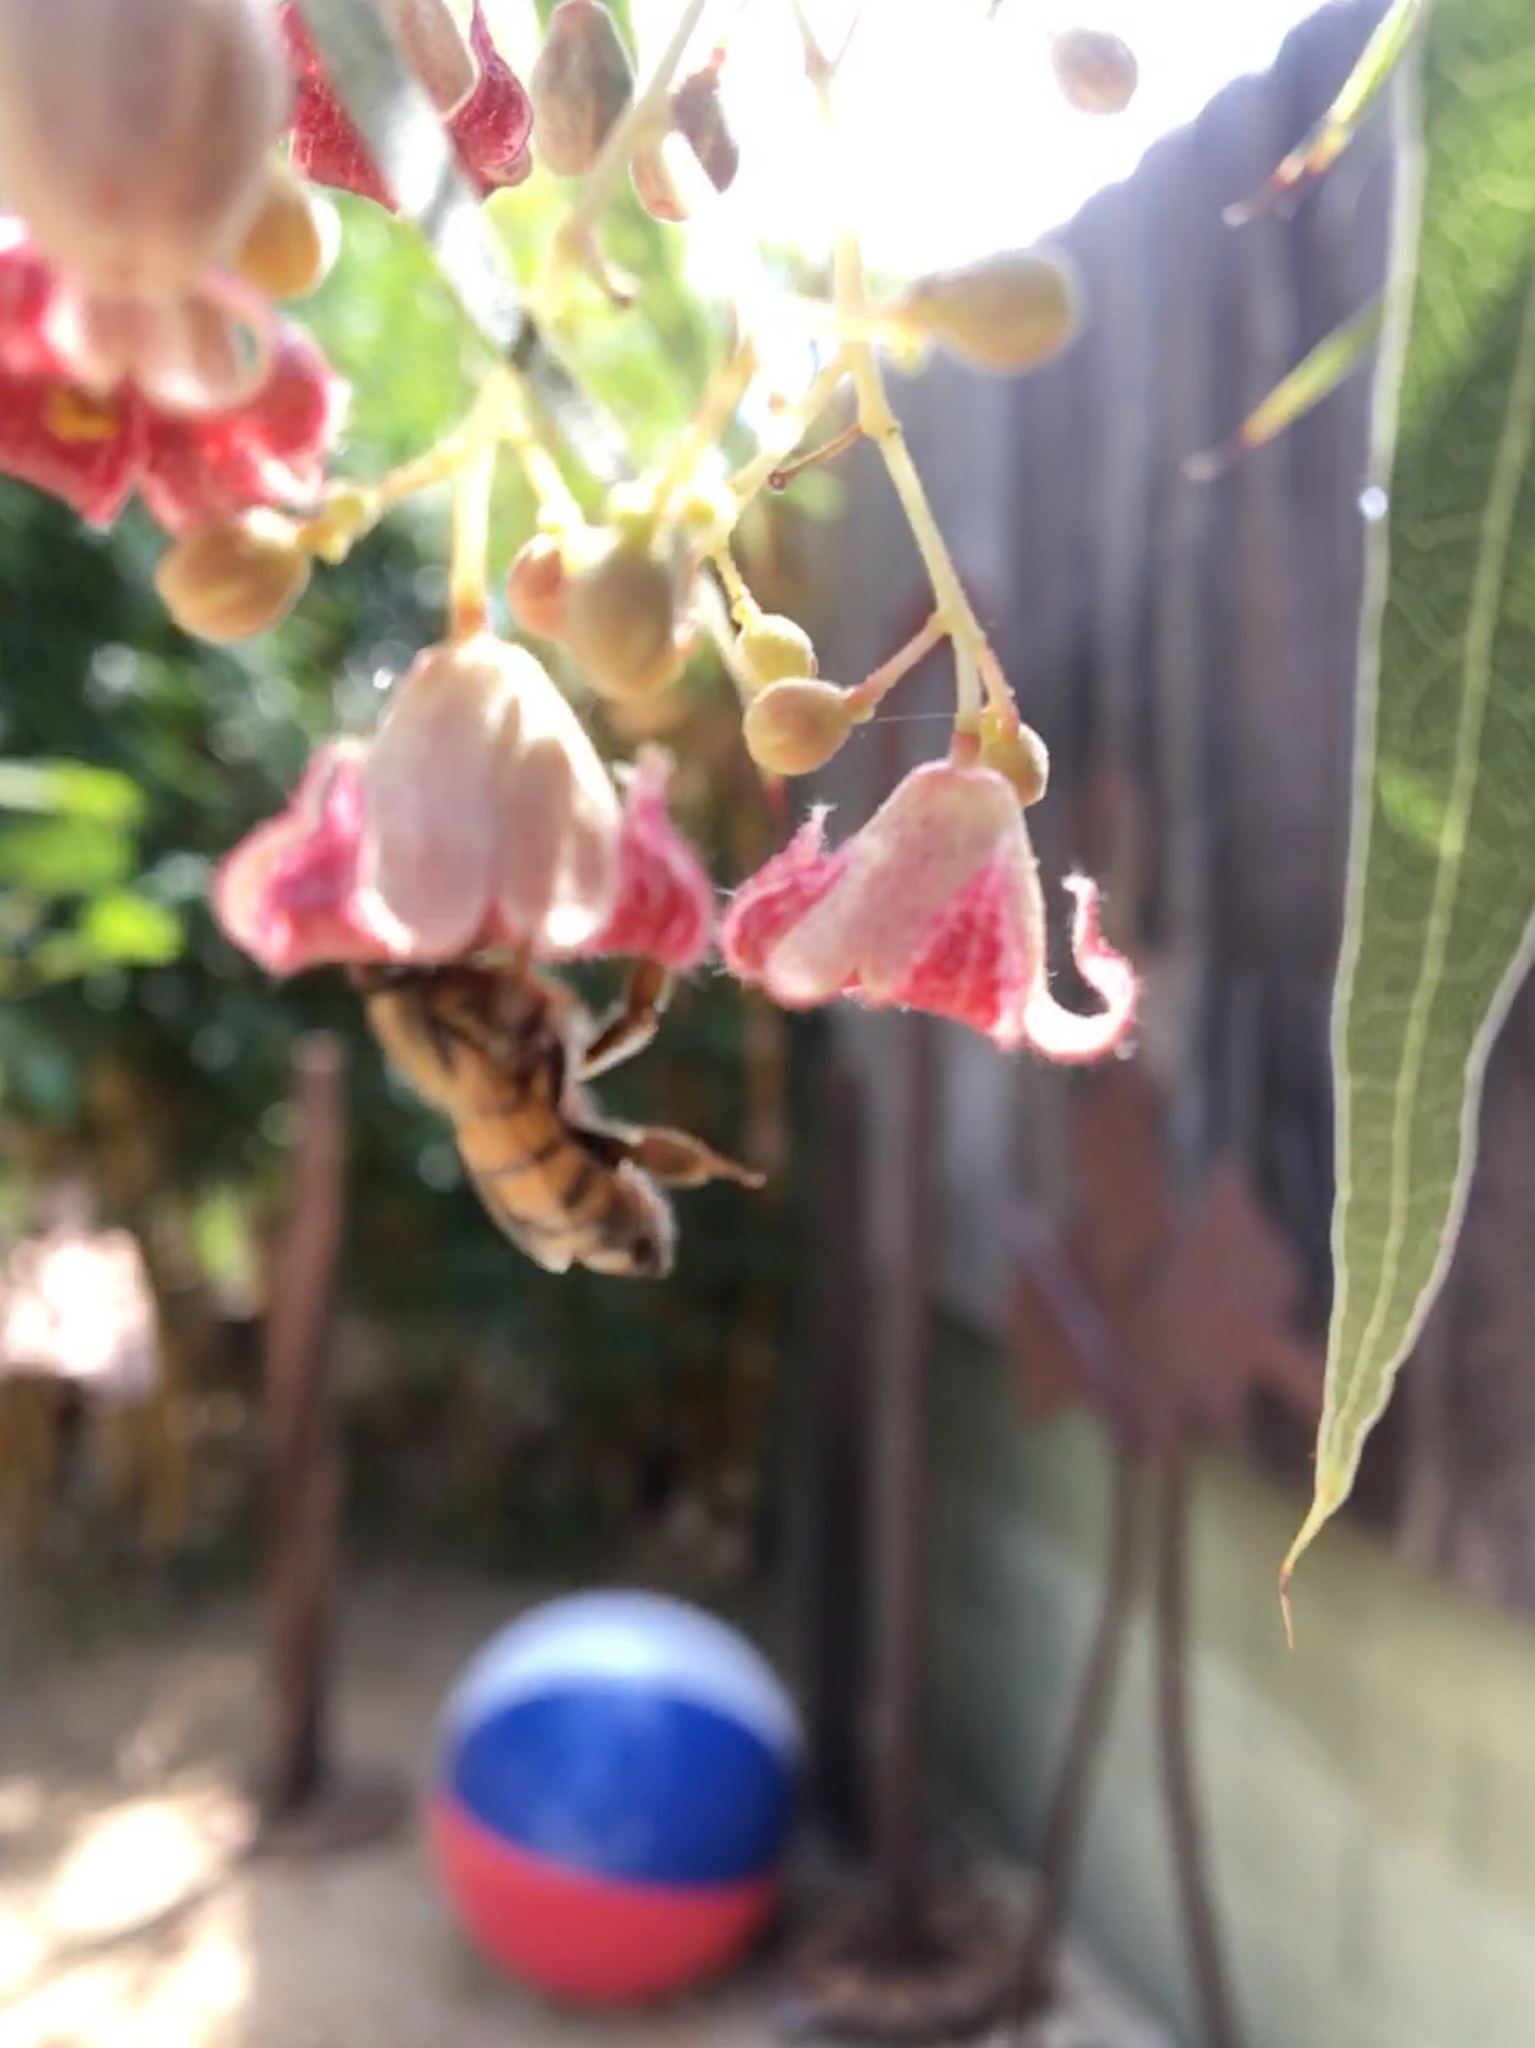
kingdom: Animalia
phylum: Arthropoda
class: Insecta
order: Hymenoptera
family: Apidae
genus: Apis
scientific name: Apis mellifera
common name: Honey bee
